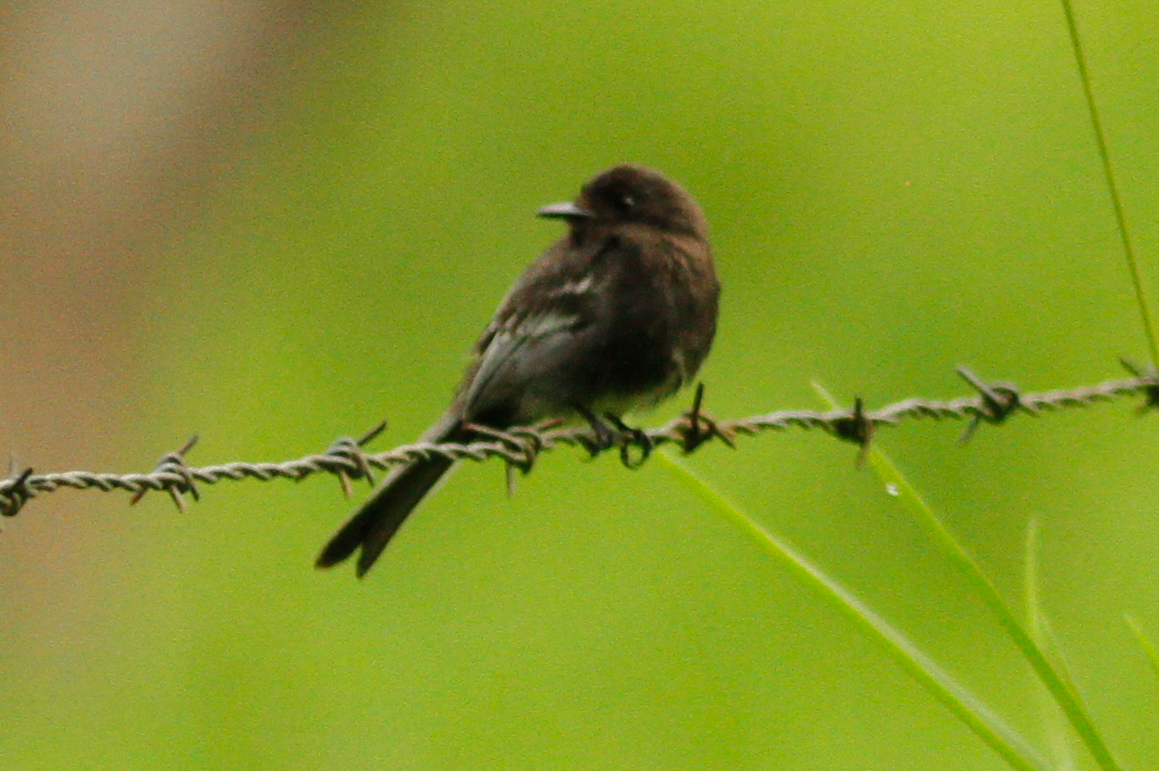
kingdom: Animalia
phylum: Chordata
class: Aves
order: Passeriformes
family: Tyrannidae
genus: Sayornis
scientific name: Sayornis nigricans
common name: Black phoebe
